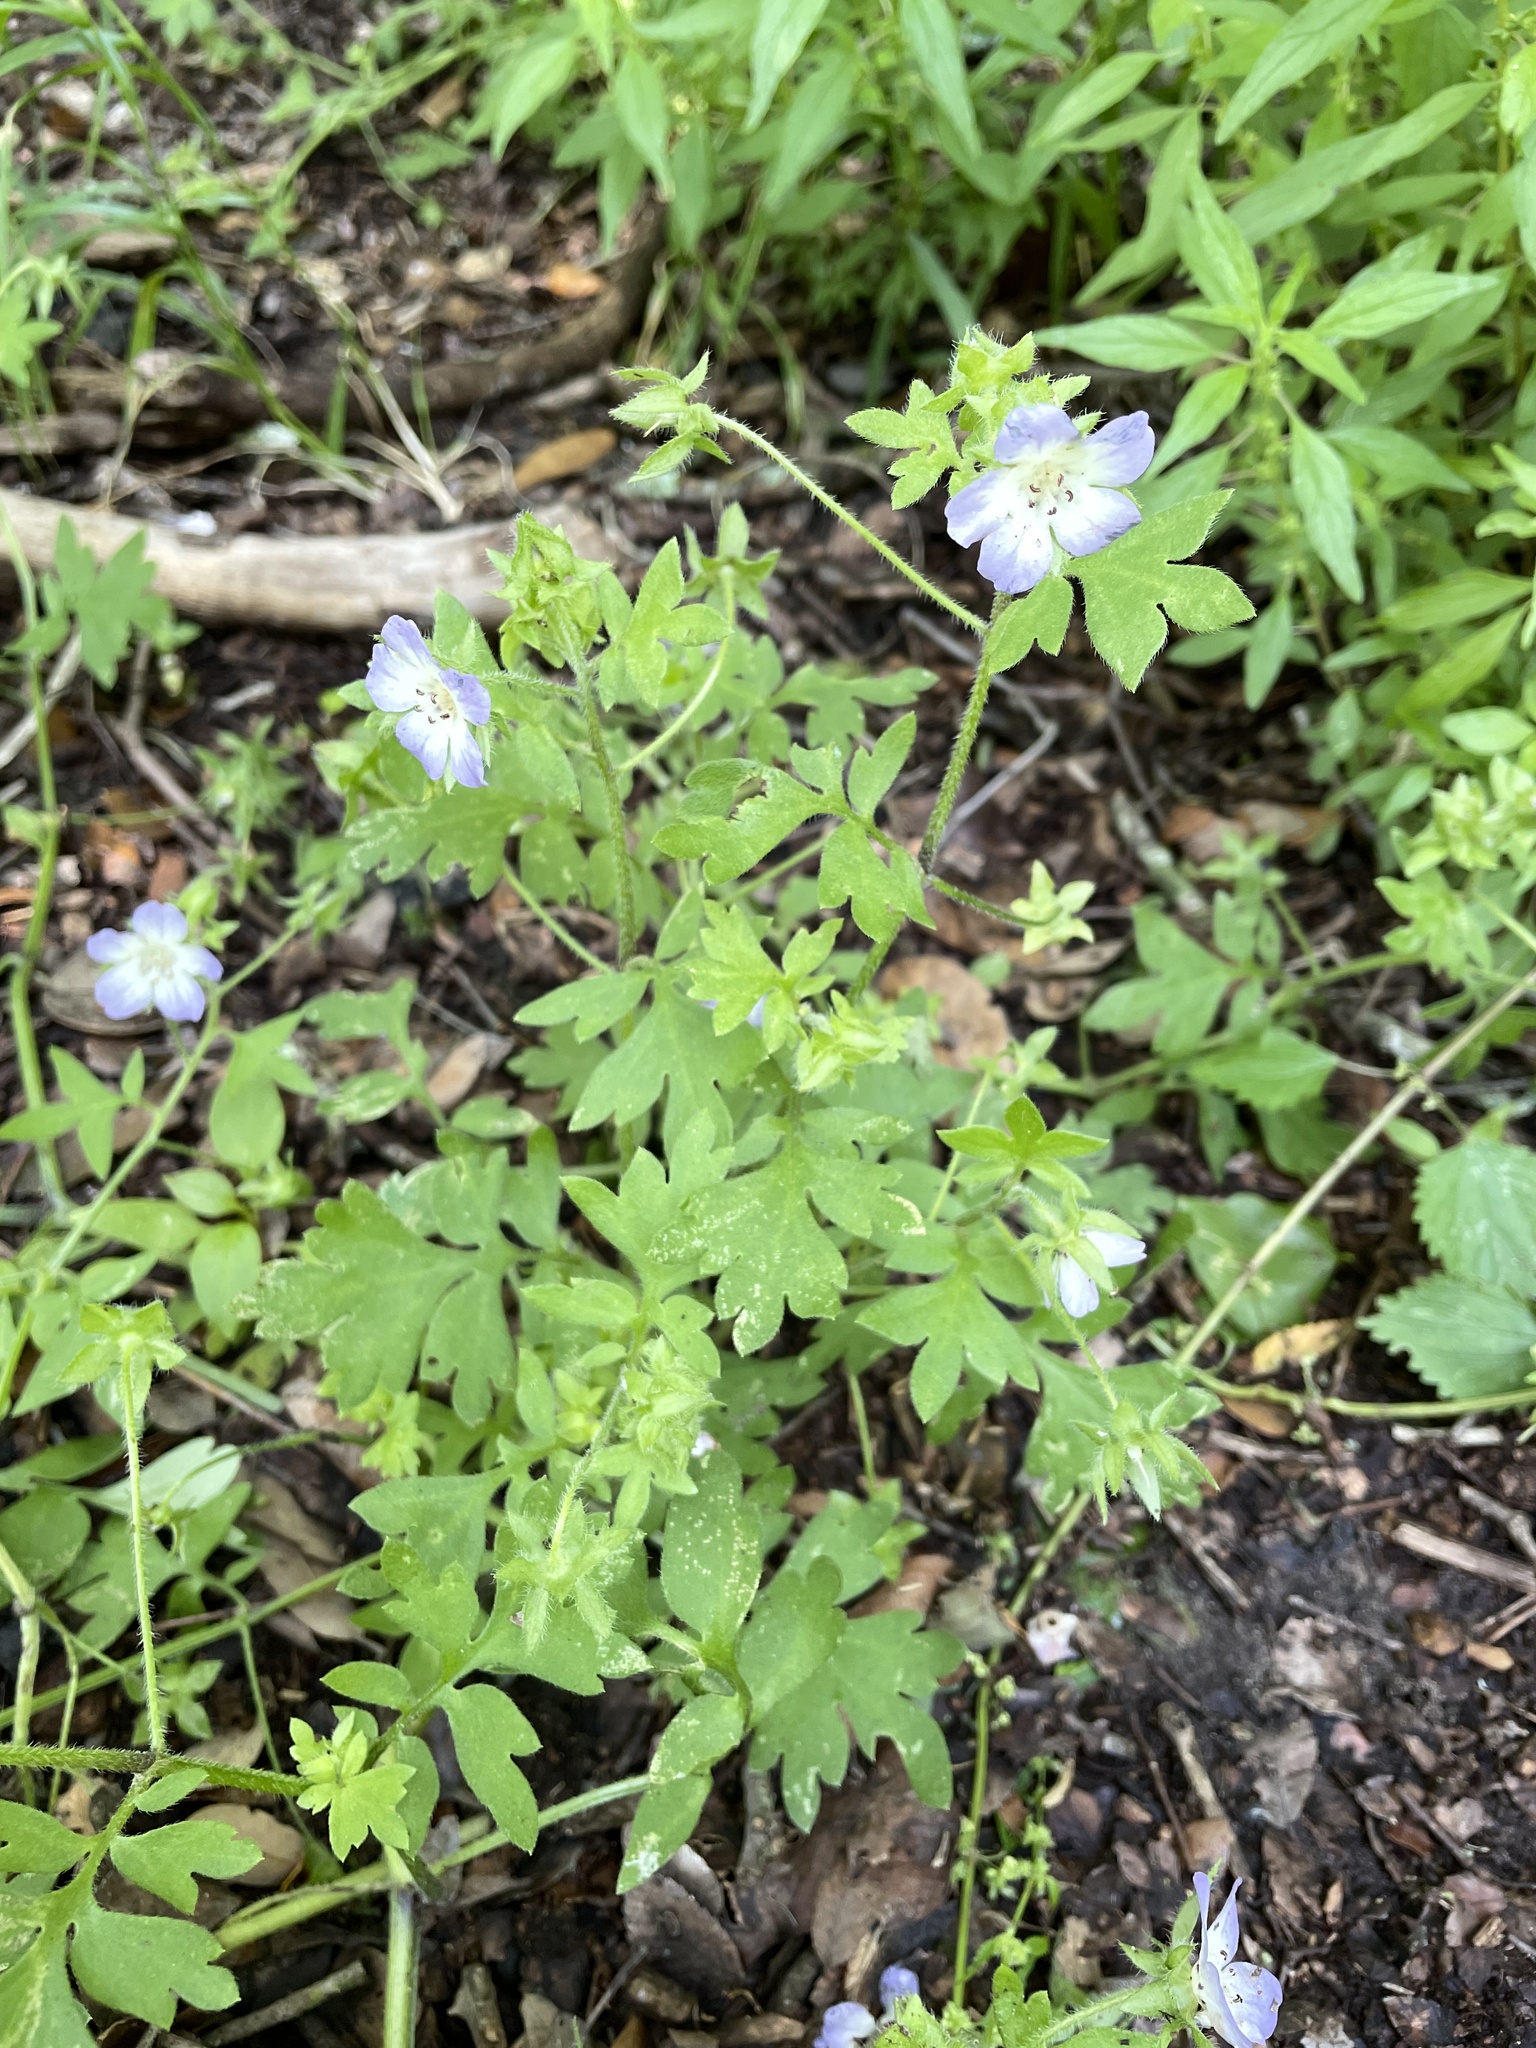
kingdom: Plantae
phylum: Tracheophyta
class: Magnoliopsida
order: Boraginales
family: Hydrophyllaceae
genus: Nemophila
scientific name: Nemophila phacelioides
